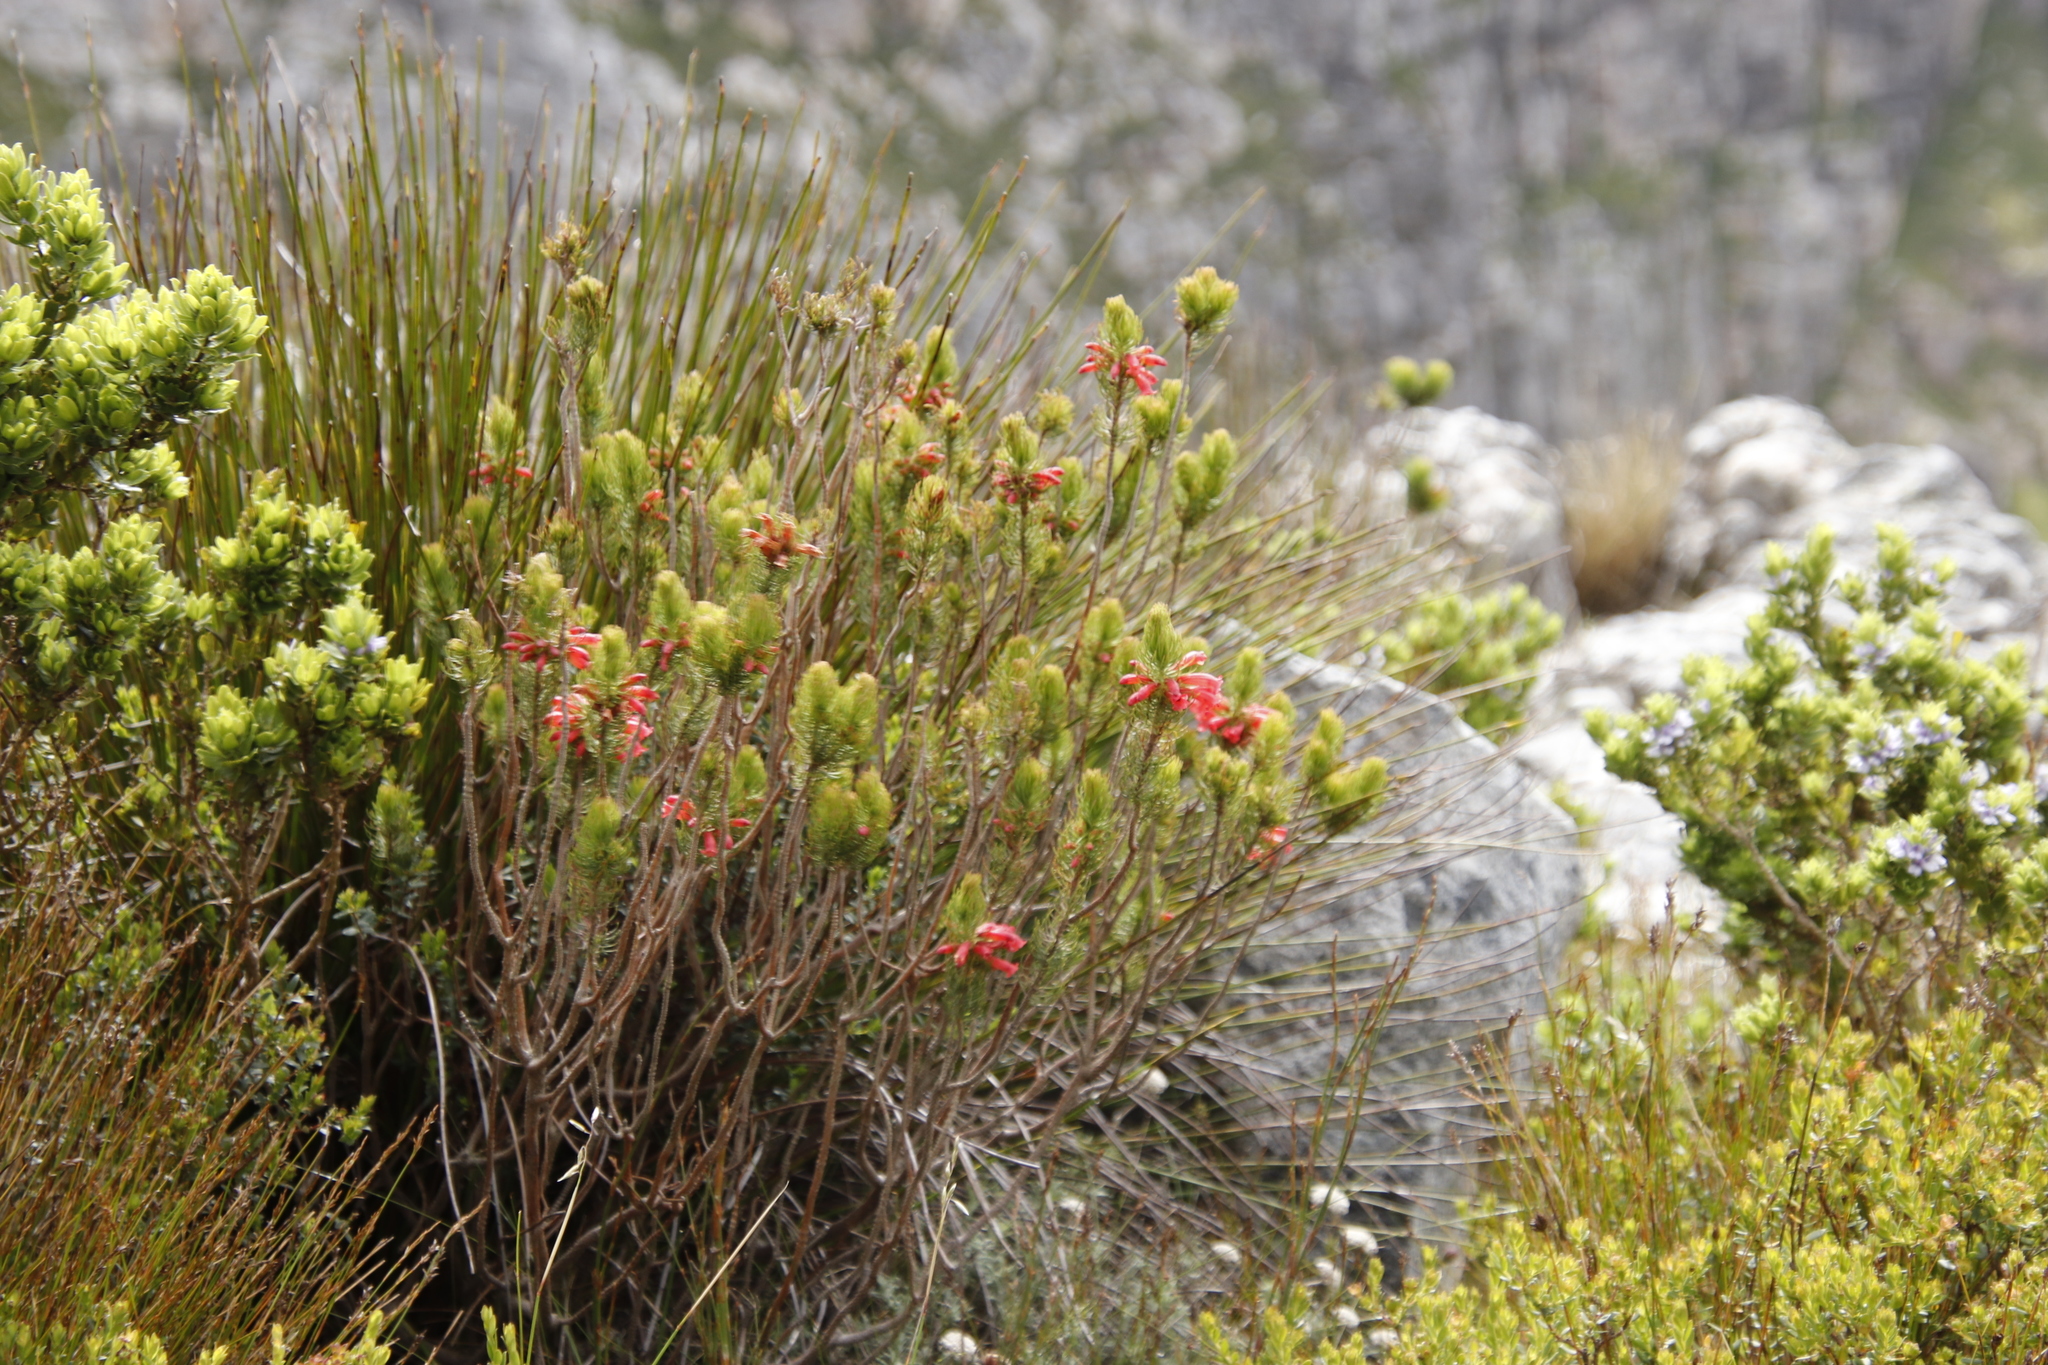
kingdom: Plantae
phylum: Tracheophyta
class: Magnoliopsida
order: Ericales
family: Ericaceae
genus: Erica
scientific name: Erica viscaria
